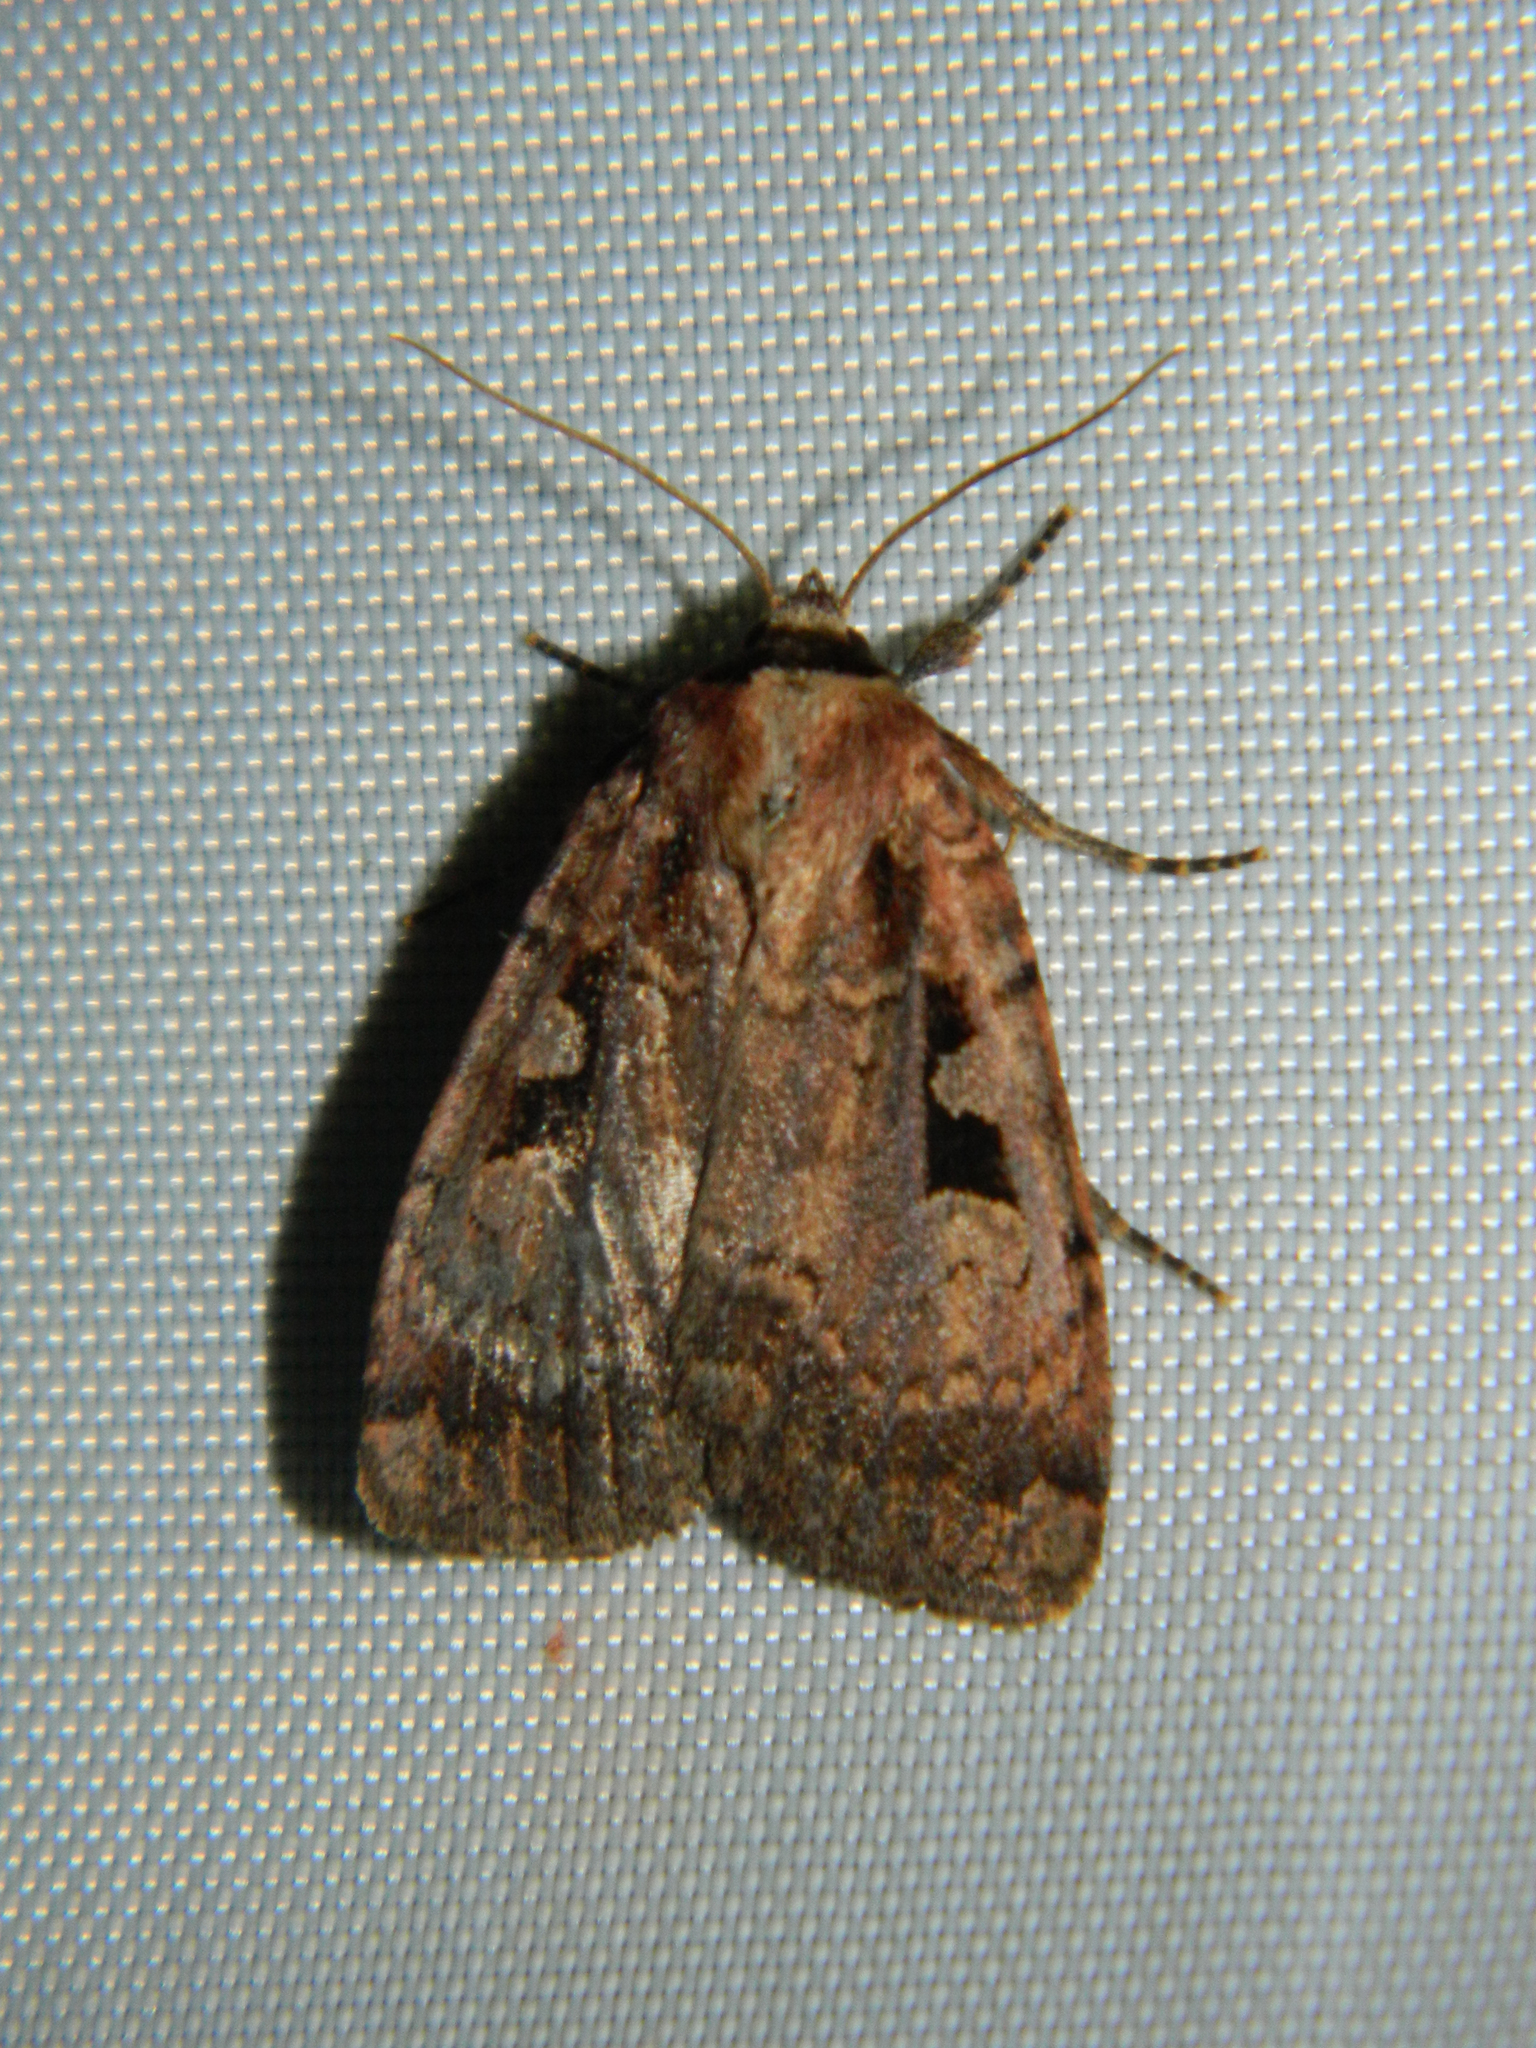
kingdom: Animalia
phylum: Arthropoda
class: Insecta
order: Lepidoptera
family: Noctuidae
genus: Eueretagrotis
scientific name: Eueretagrotis perattentus
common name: Two-spot dart moth
